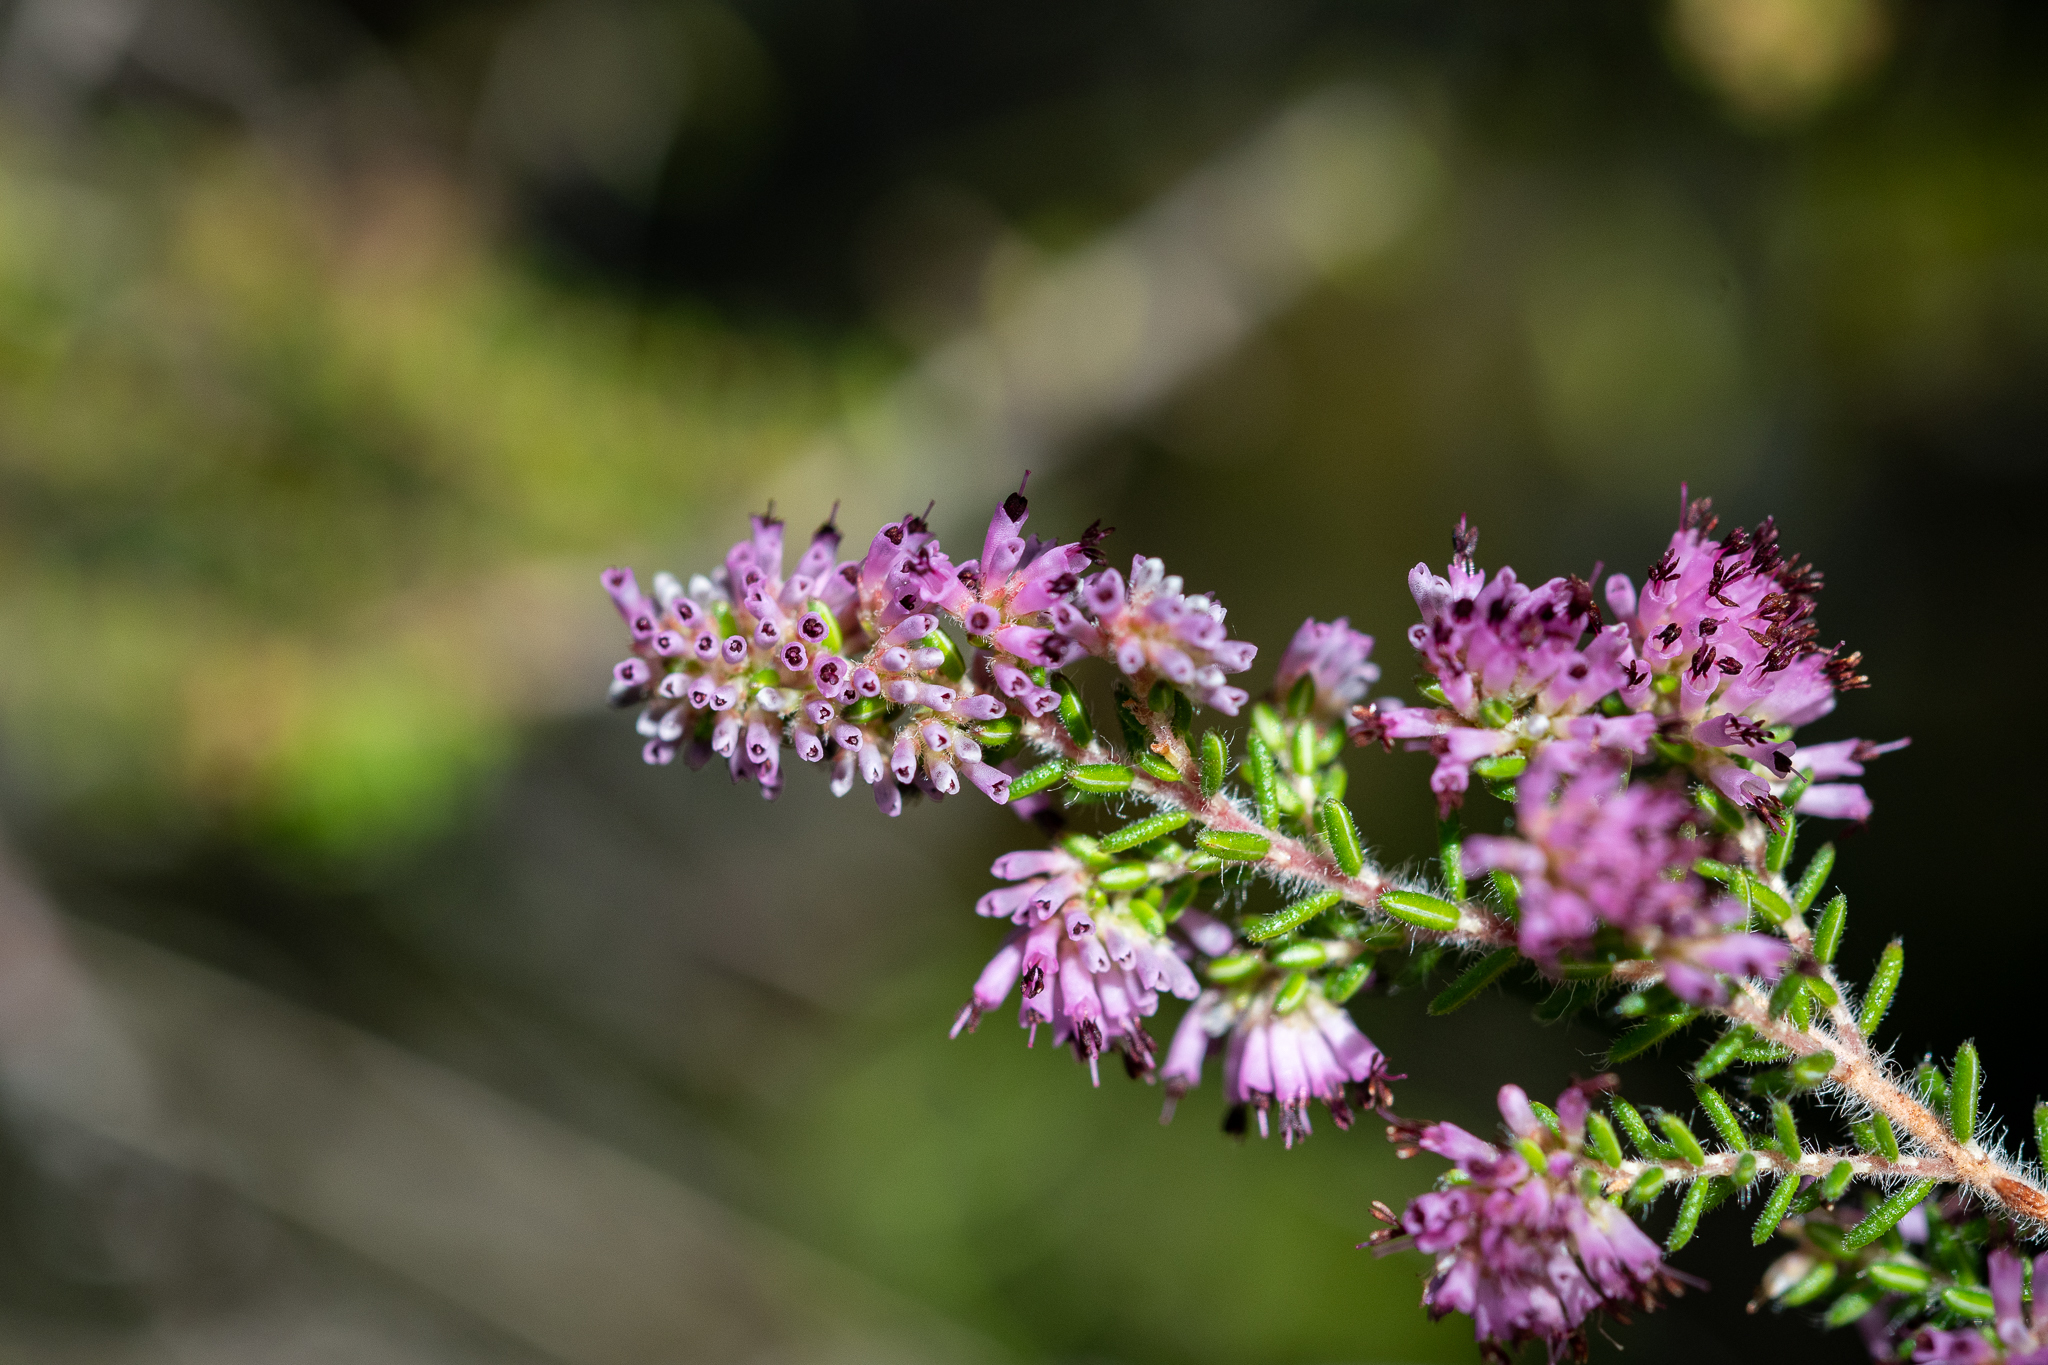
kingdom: Plantae
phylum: Tracheophyta
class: Magnoliopsida
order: Ericales
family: Ericaceae
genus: Erica
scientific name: Erica williamsiorum
